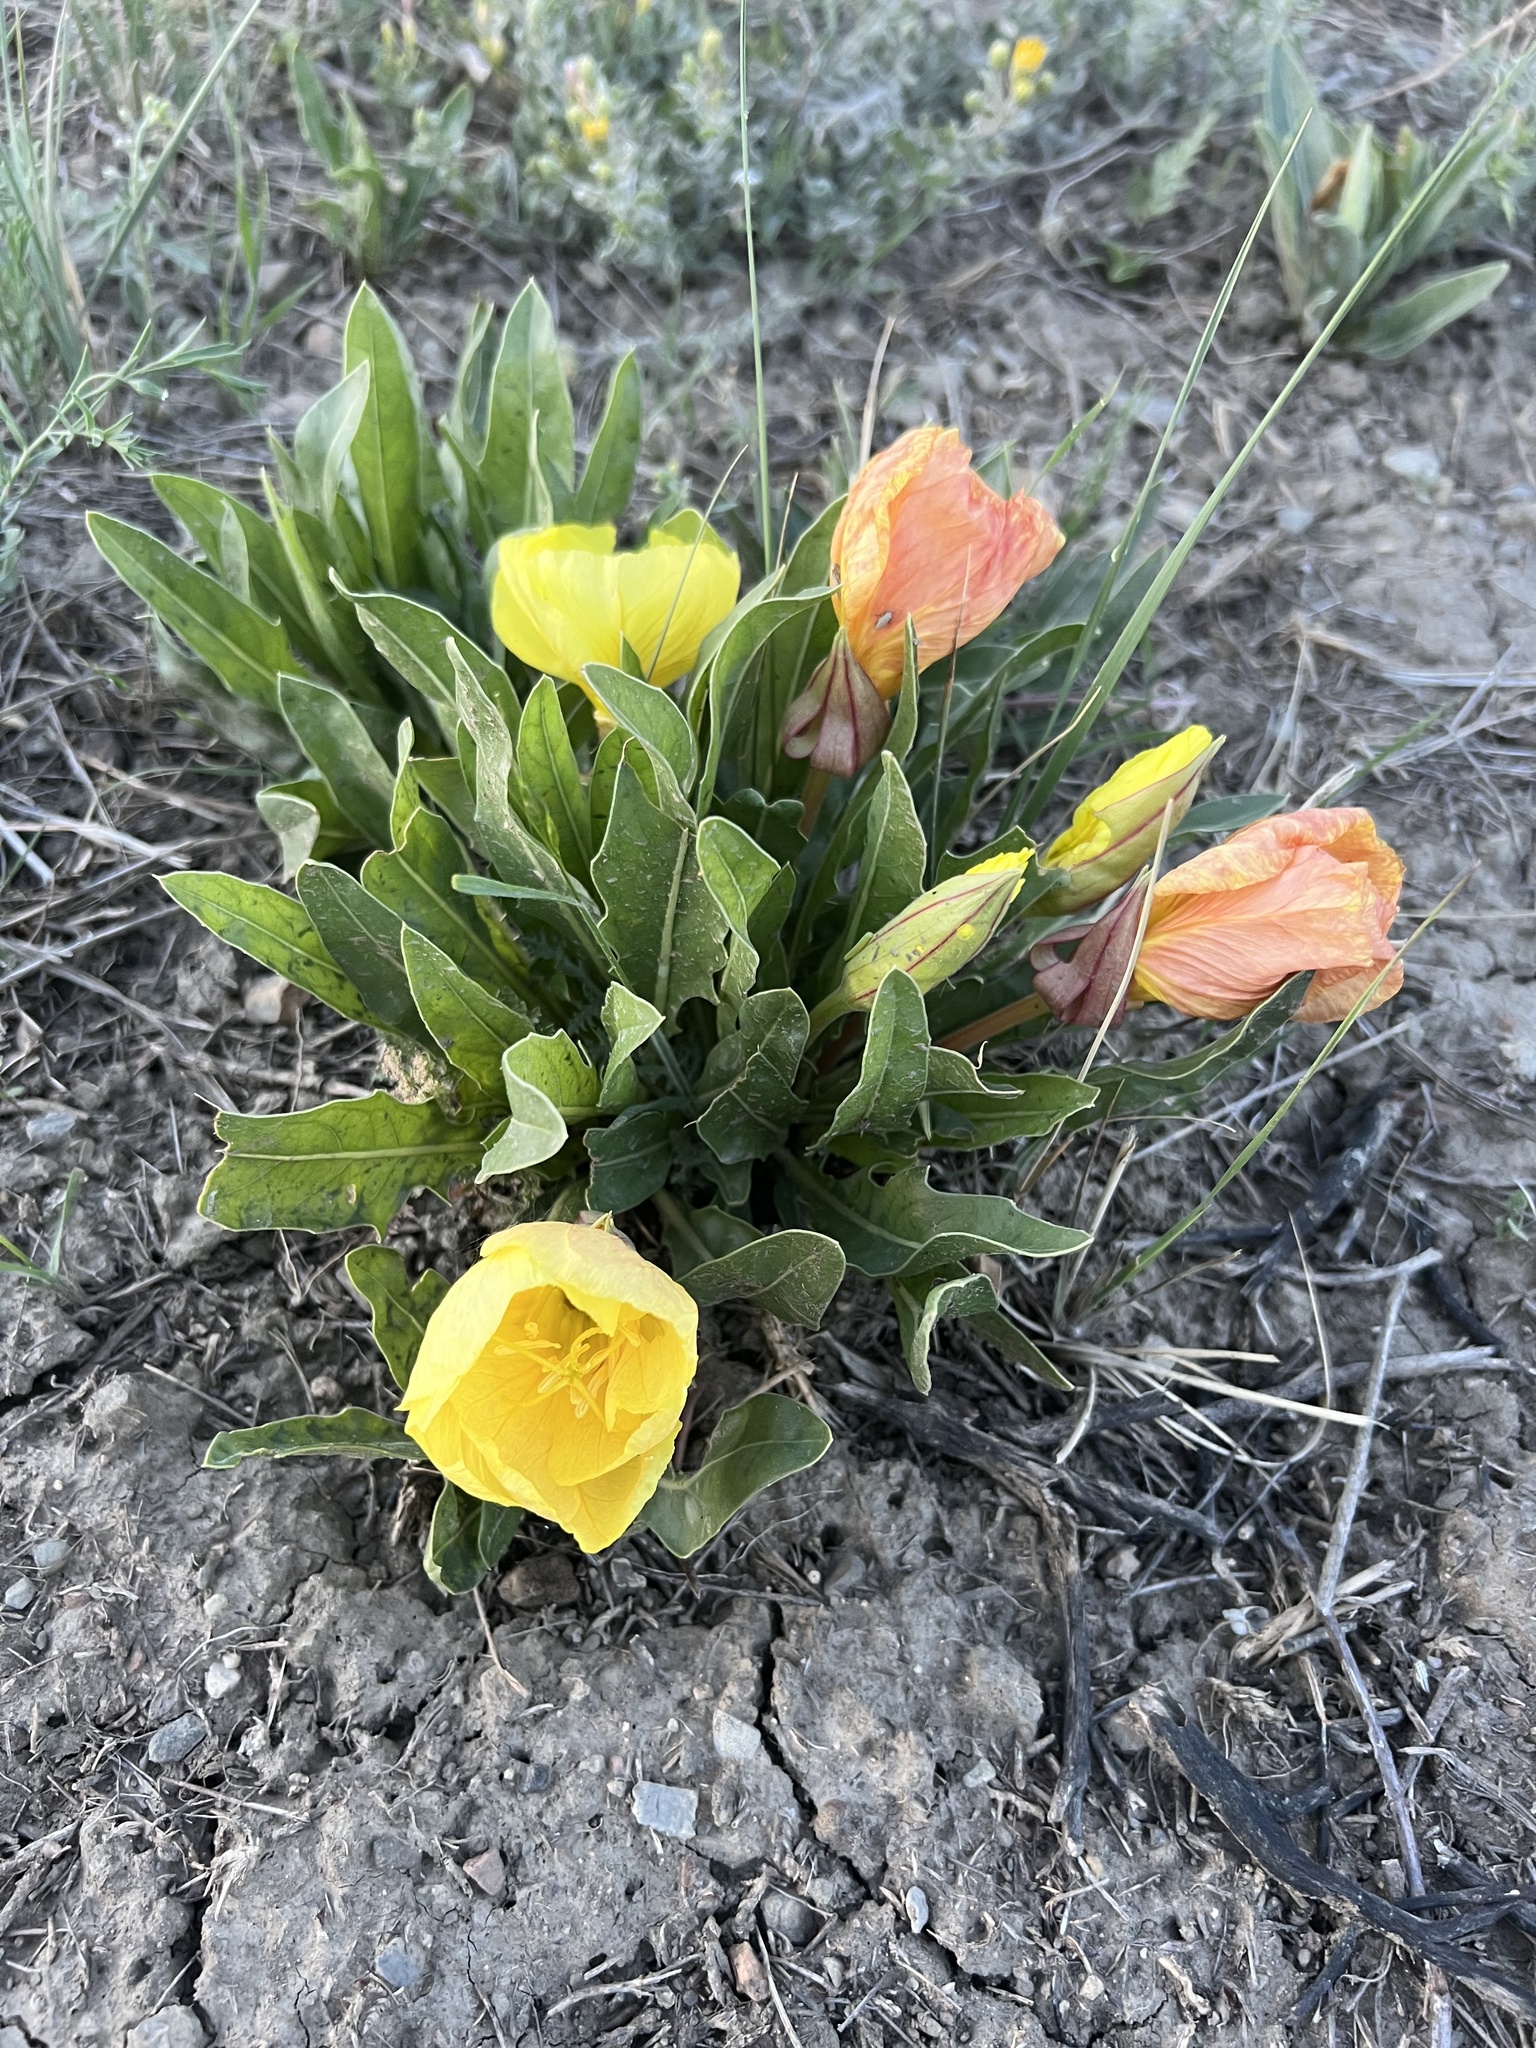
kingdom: Plantae
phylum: Tracheophyta
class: Magnoliopsida
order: Myrtales
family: Onagraceae
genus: Oenothera
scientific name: Oenothera howardii
